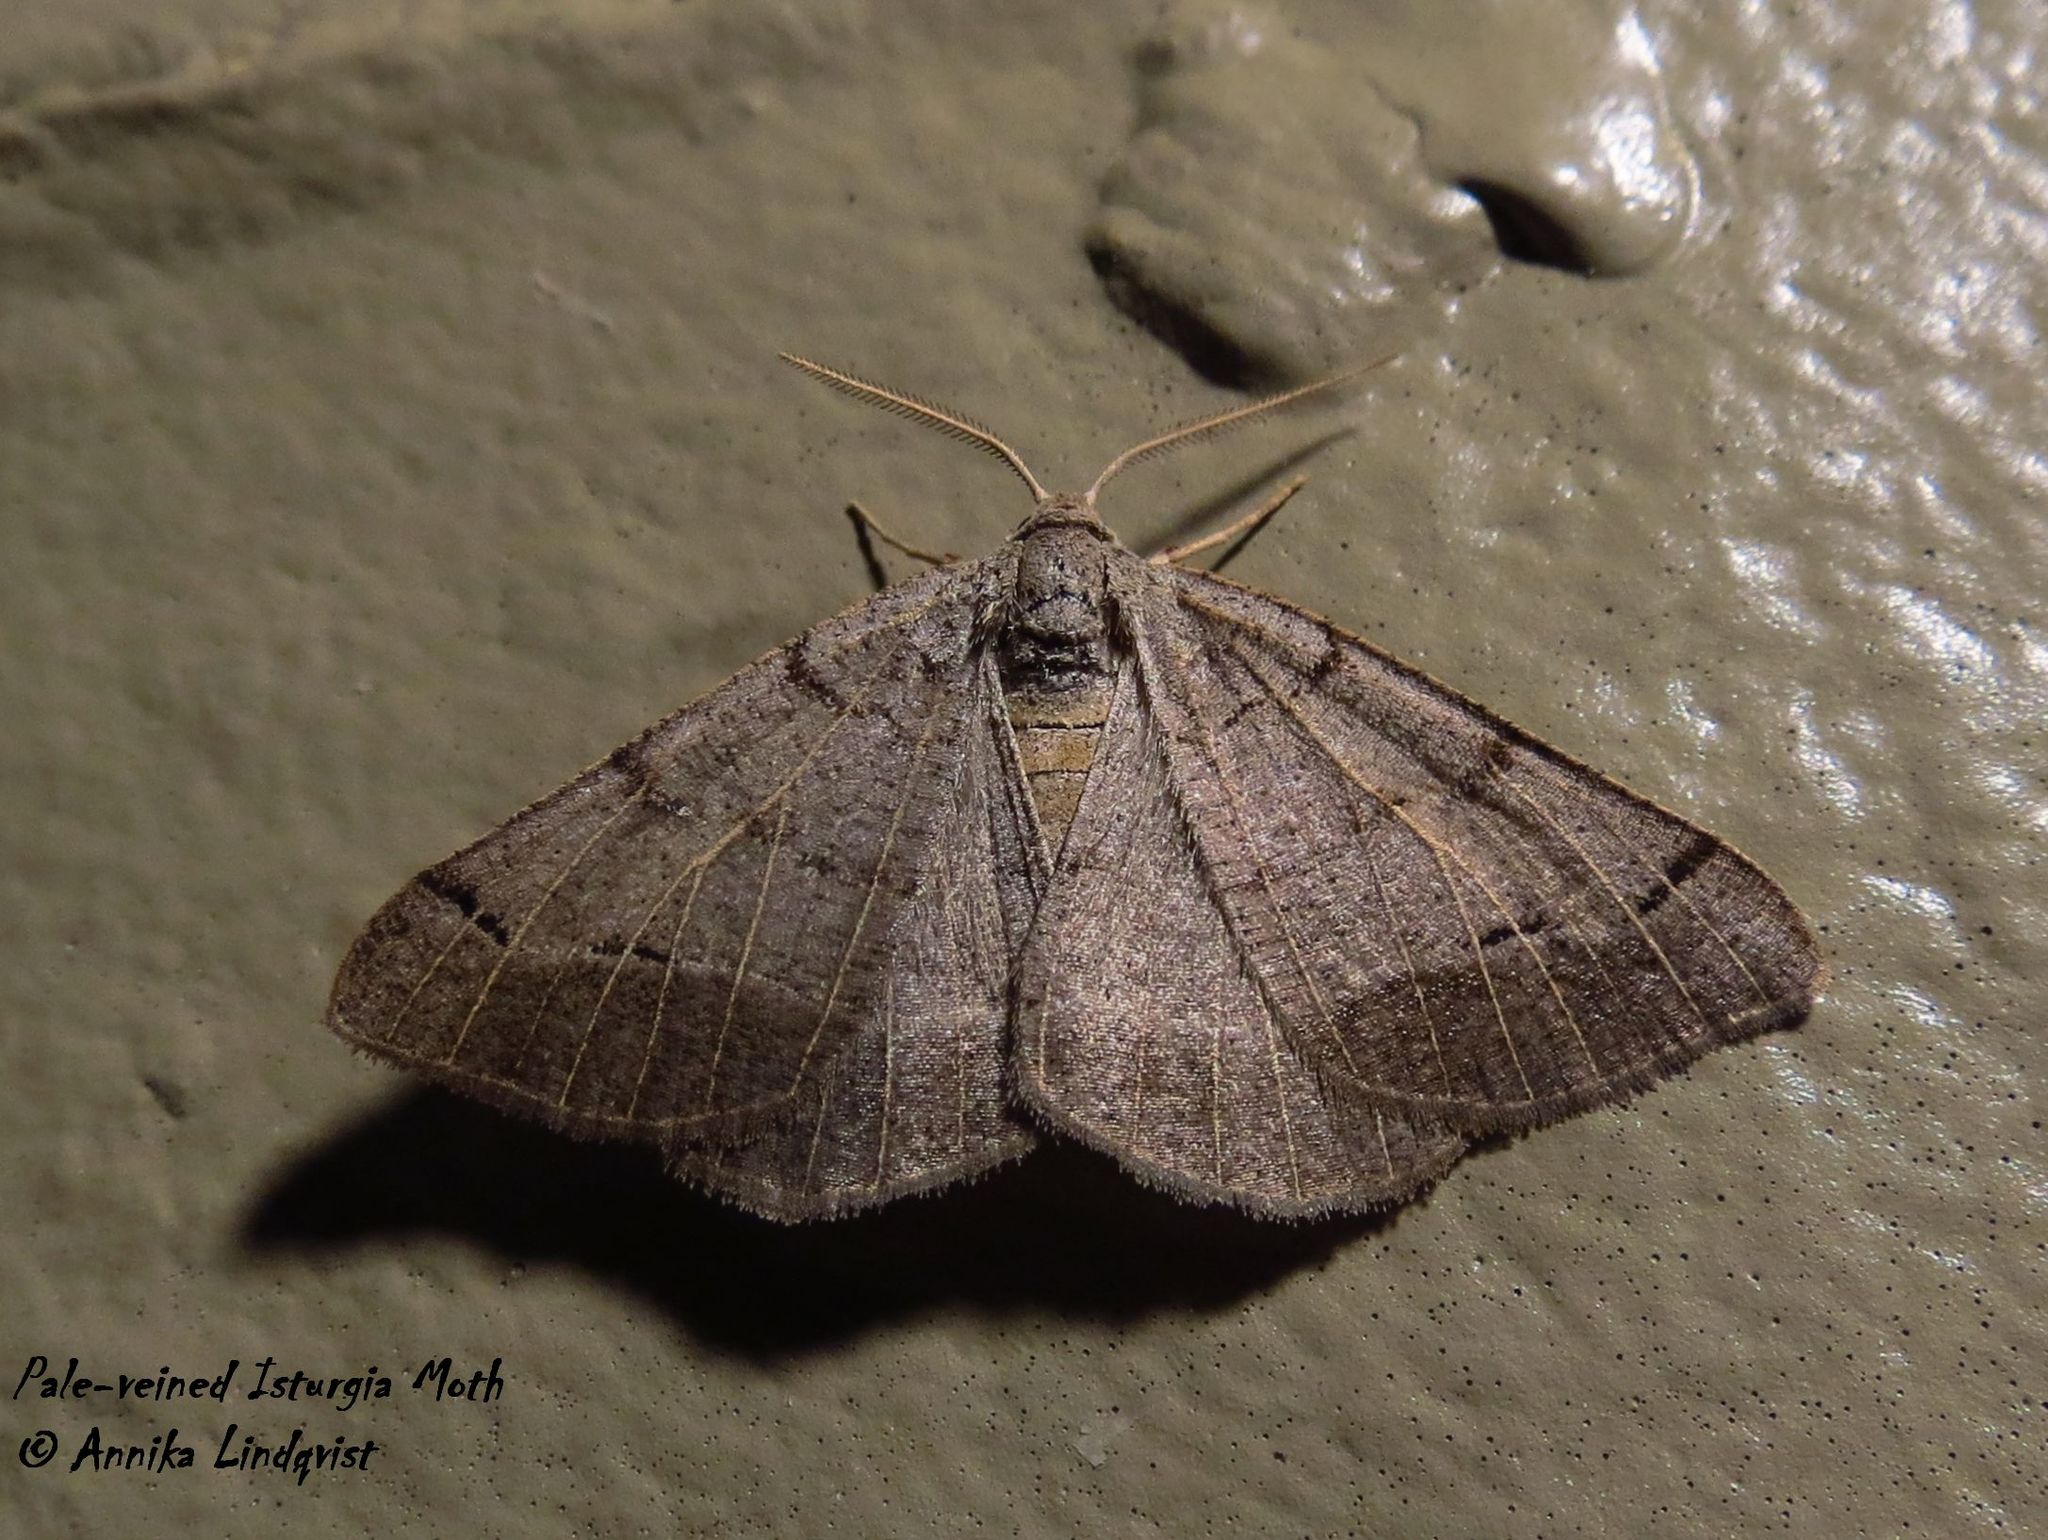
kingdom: Animalia
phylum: Arthropoda
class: Insecta
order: Lepidoptera
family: Geometridae
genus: Isturgia
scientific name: Isturgia dislocaria
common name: Pale-viened enconista
